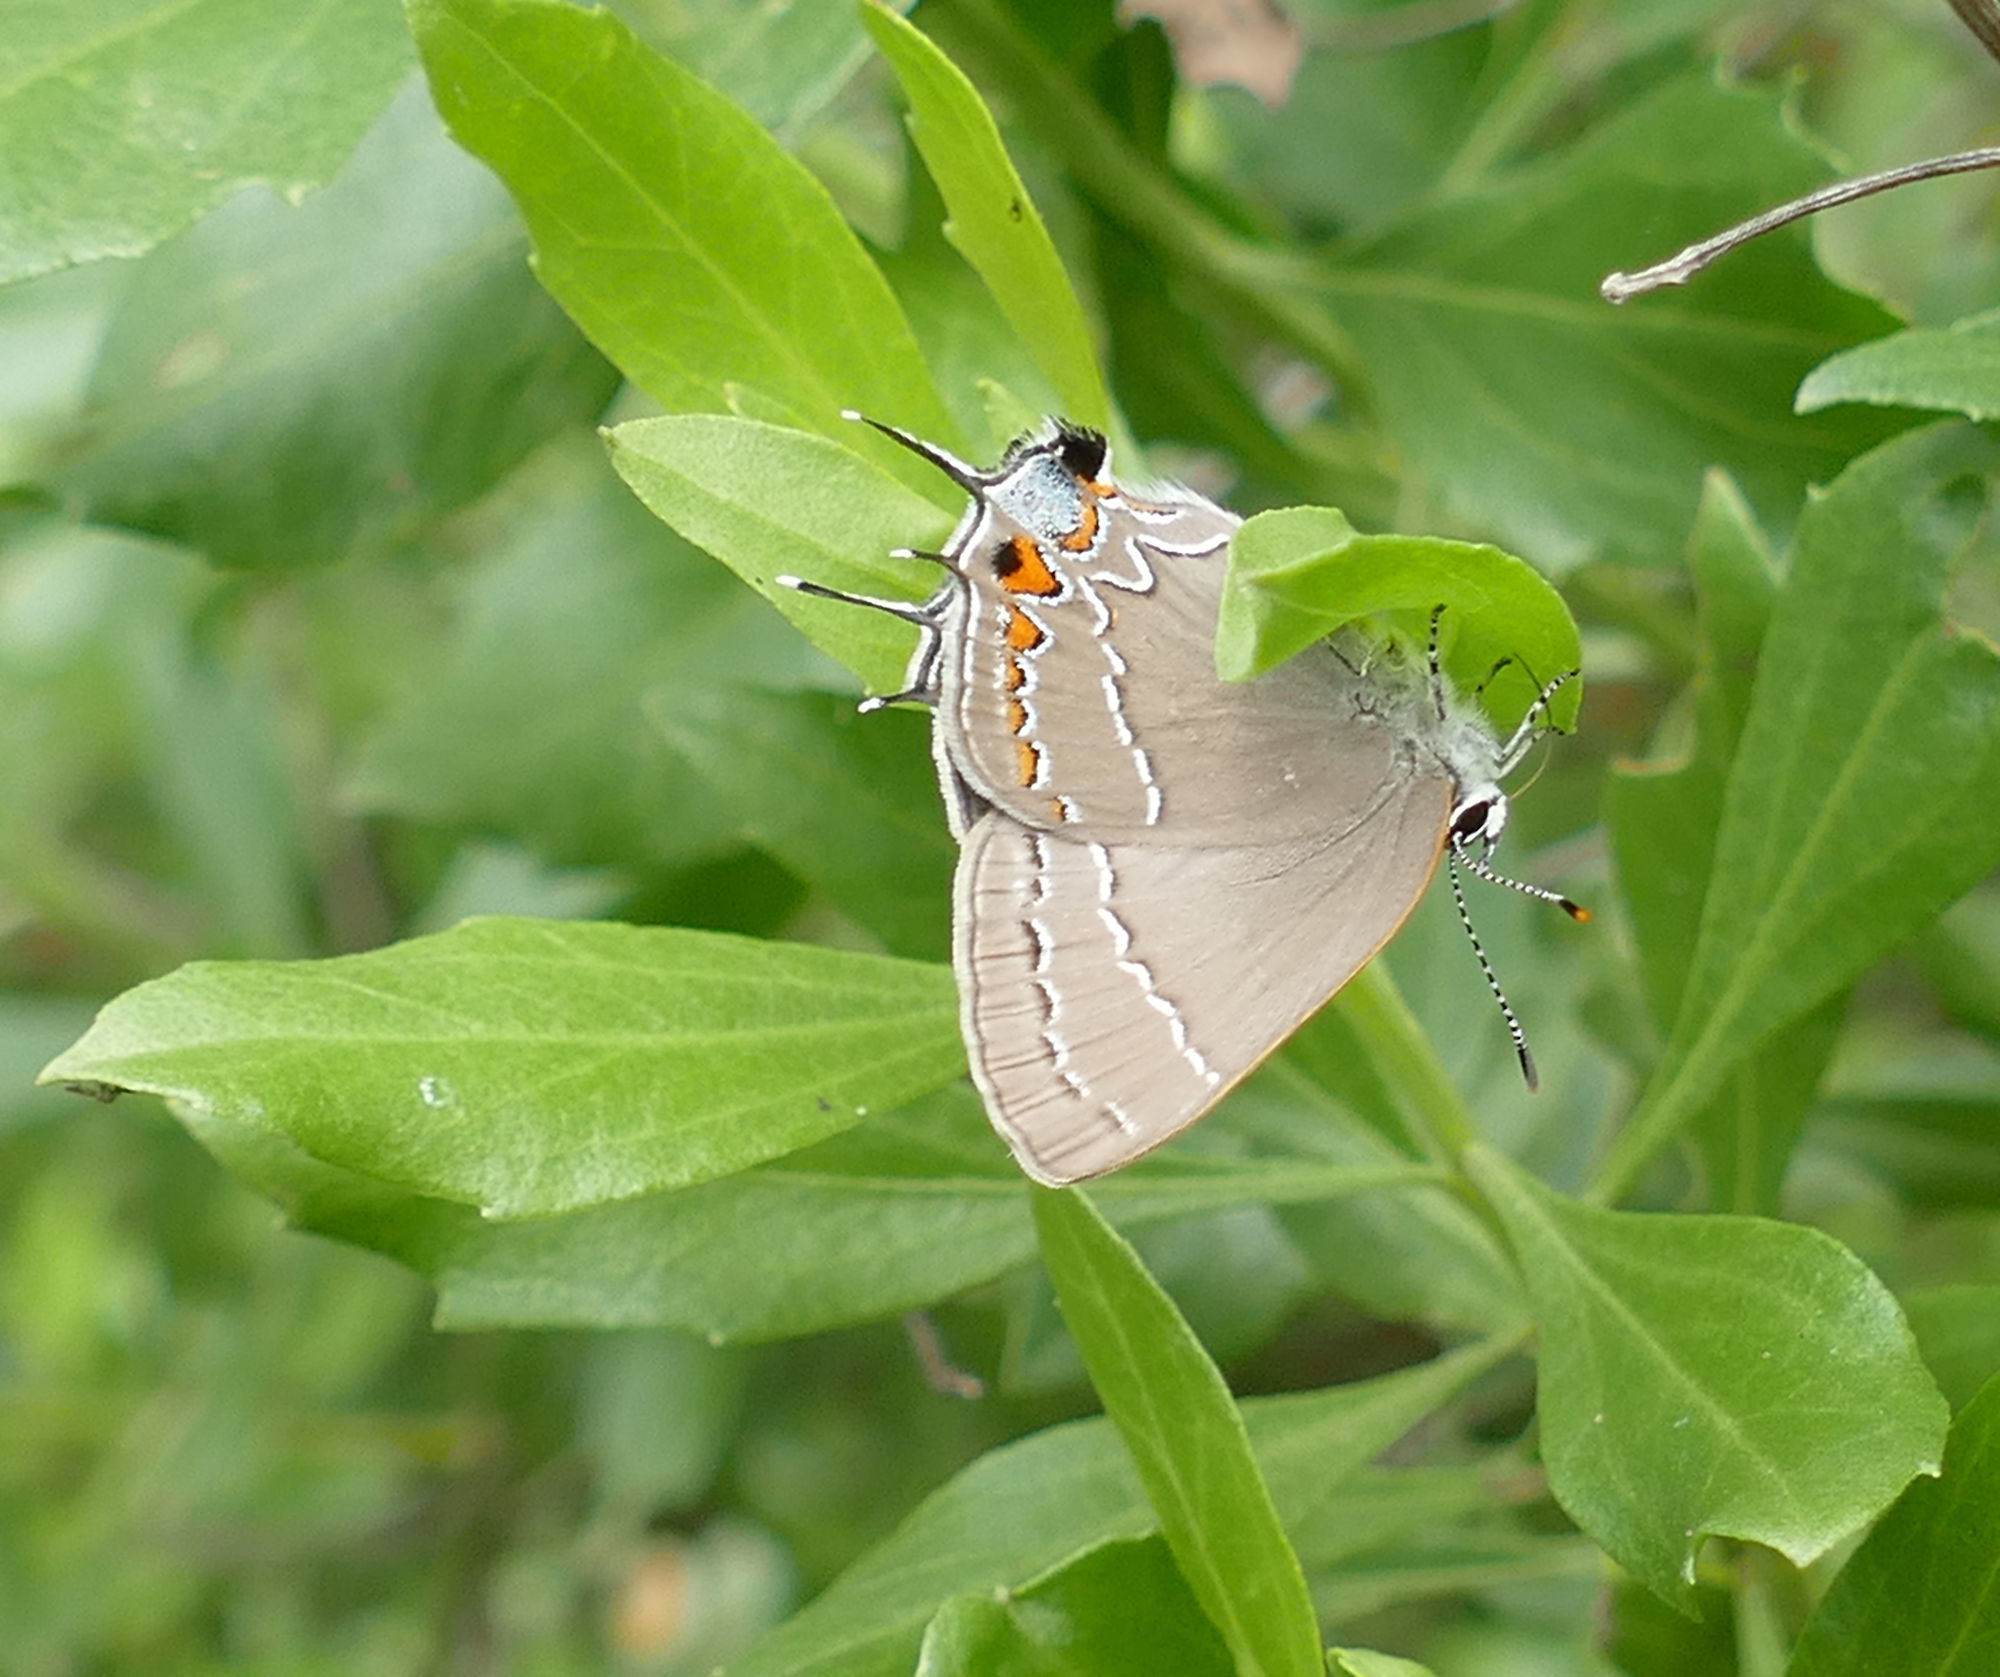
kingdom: Animalia
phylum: Arthropoda
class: Insecta
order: Lepidoptera
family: Lycaenidae
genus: Fixsenia
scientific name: Fixsenia favonius
